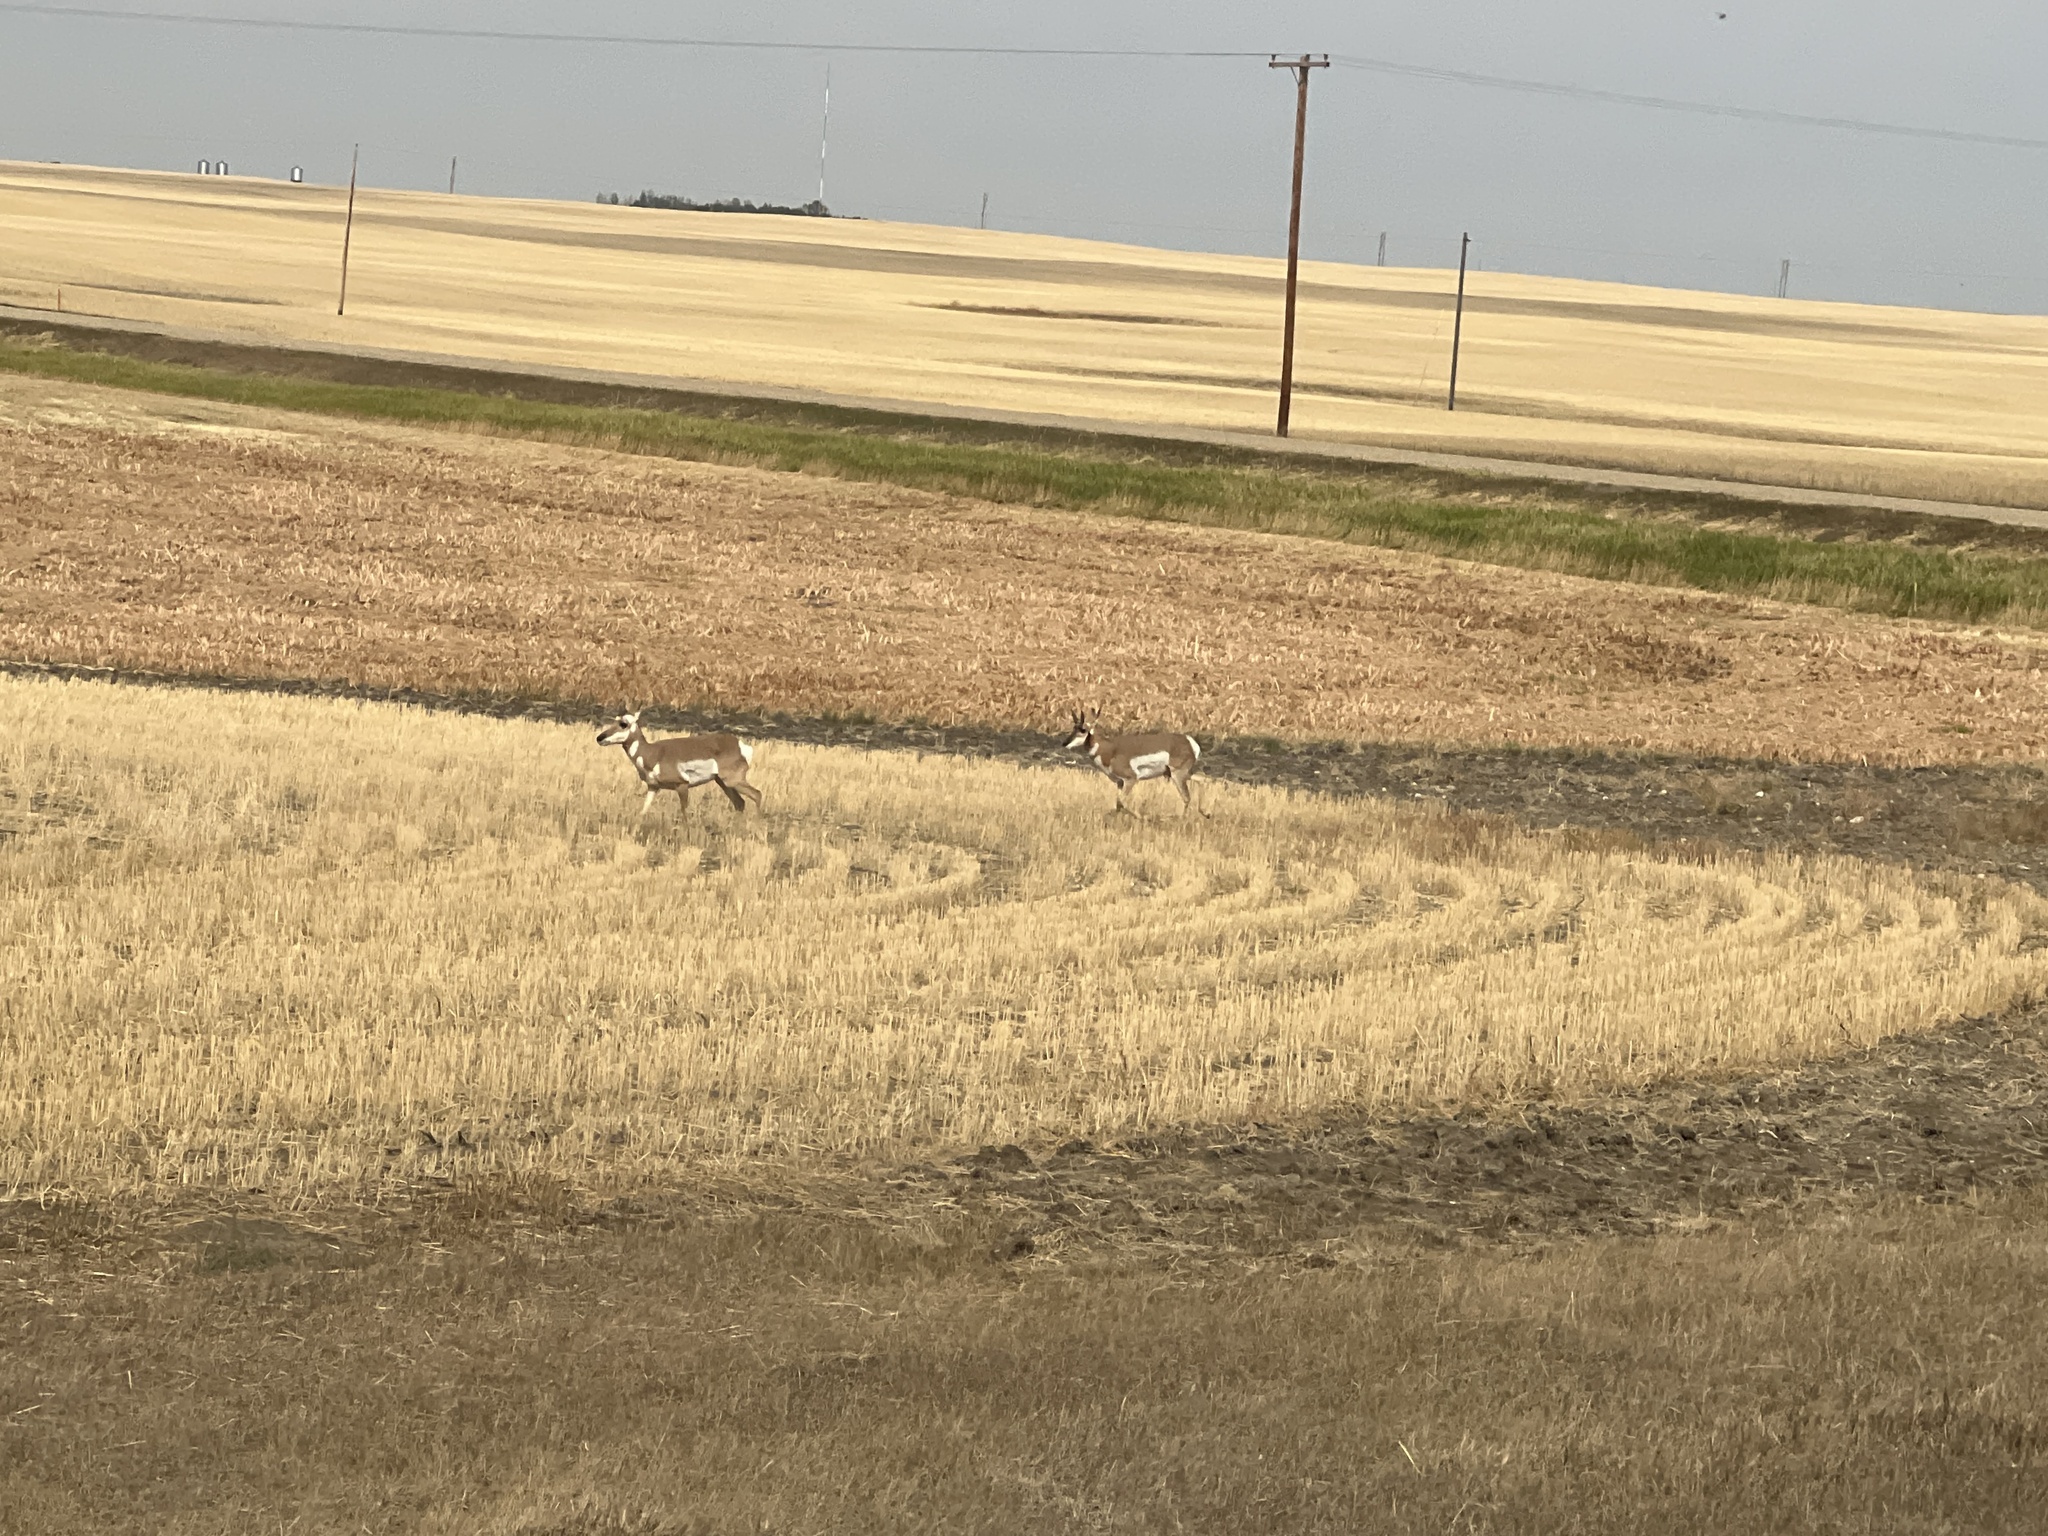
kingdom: Animalia
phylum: Chordata
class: Mammalia
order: Artiodactyla
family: Antilocapridae
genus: Antilocapra
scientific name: Antilocapra americana
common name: Pronghorn
